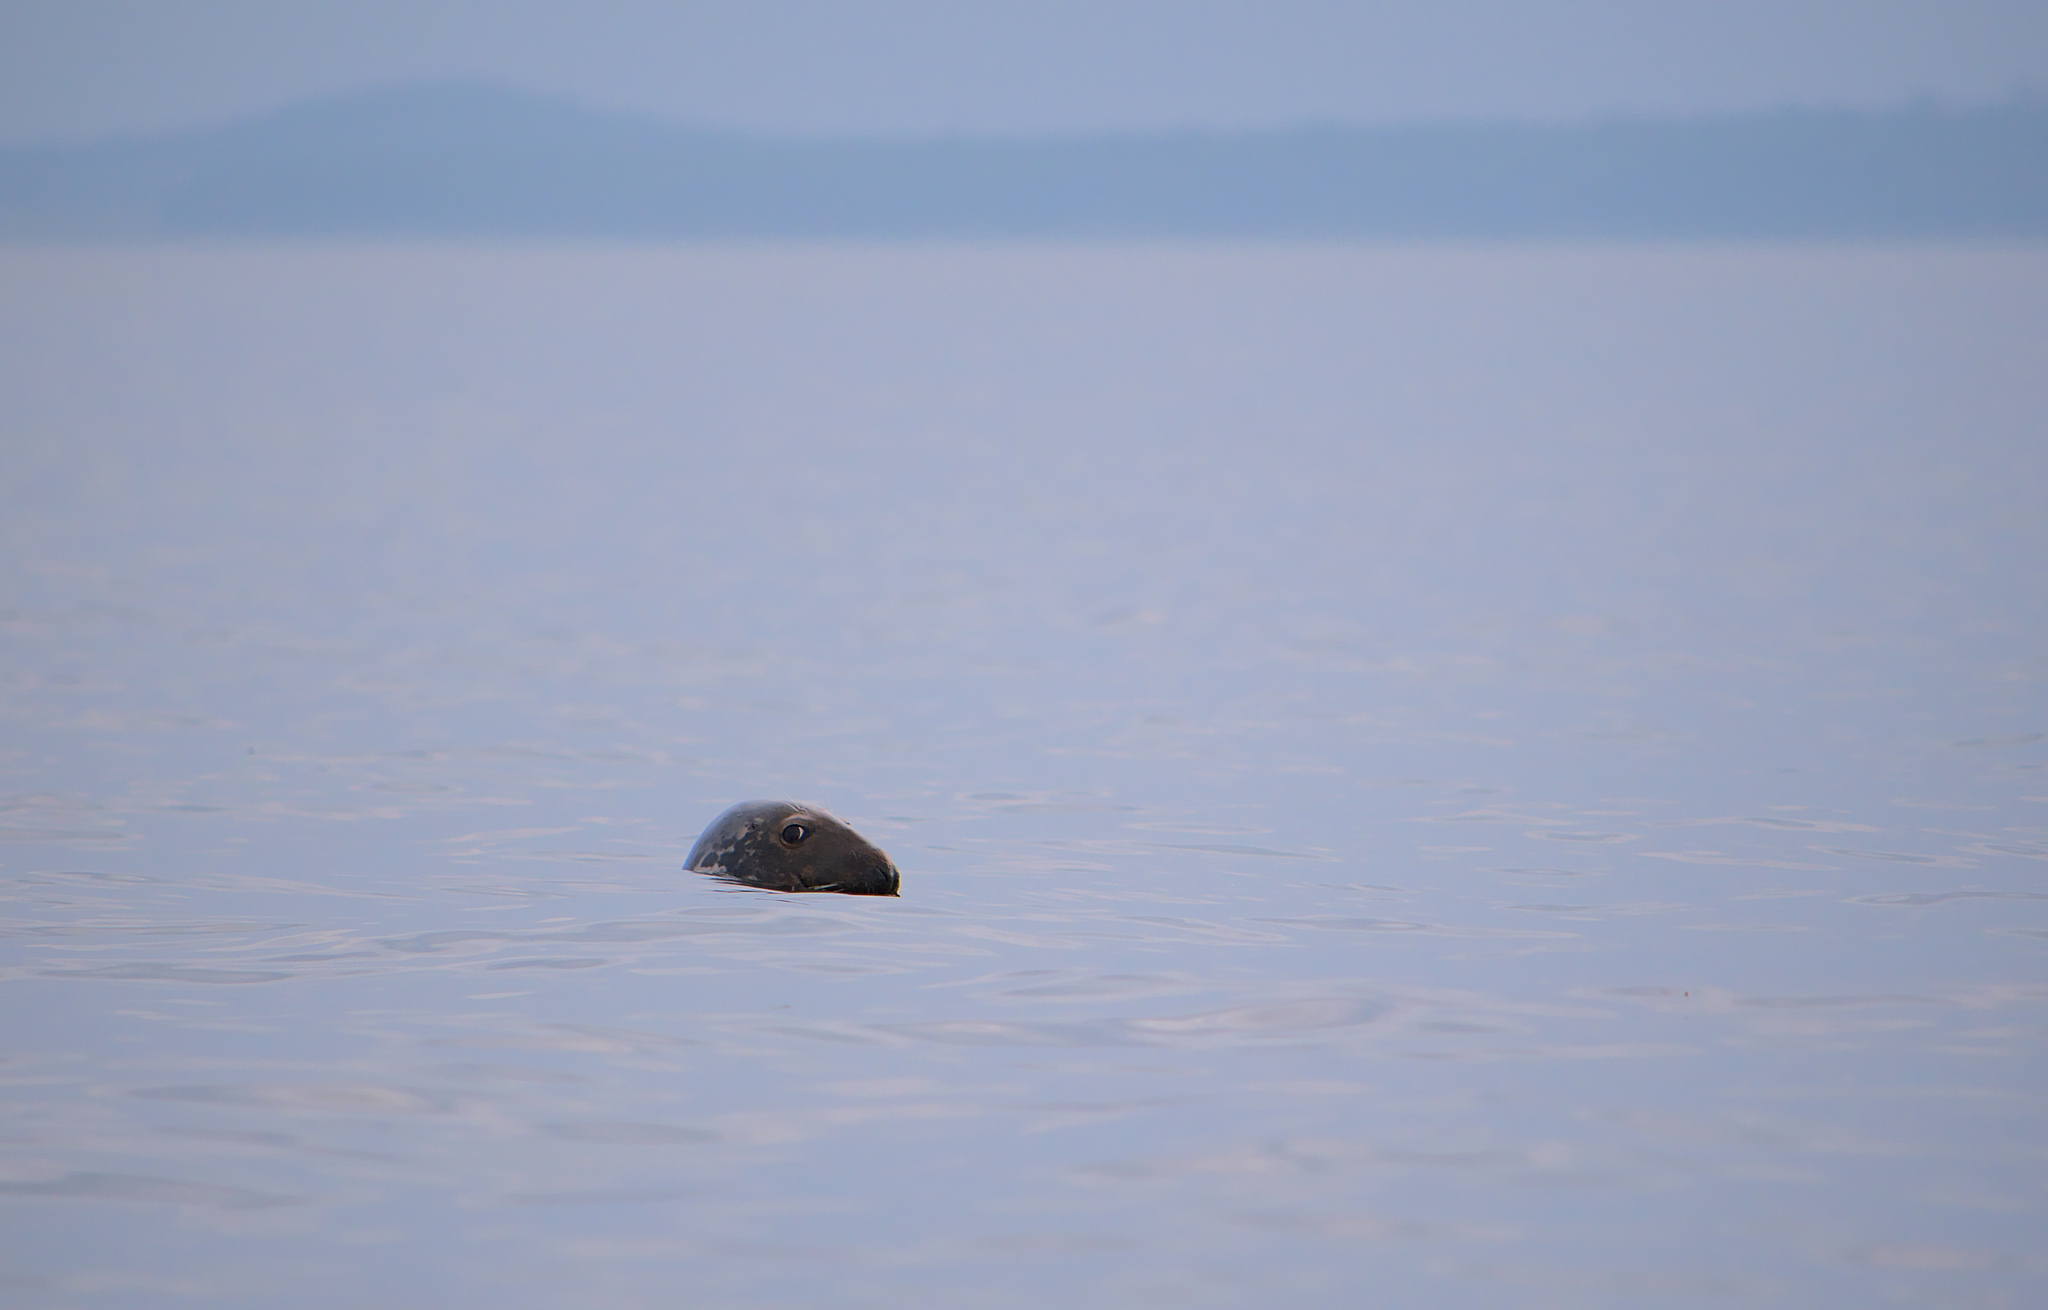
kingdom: Animalia
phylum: Chordata
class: Mammalia
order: Carnivora
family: Phocidae
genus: Halichoerus
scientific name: Halichoerus grypus
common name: Grey seal
